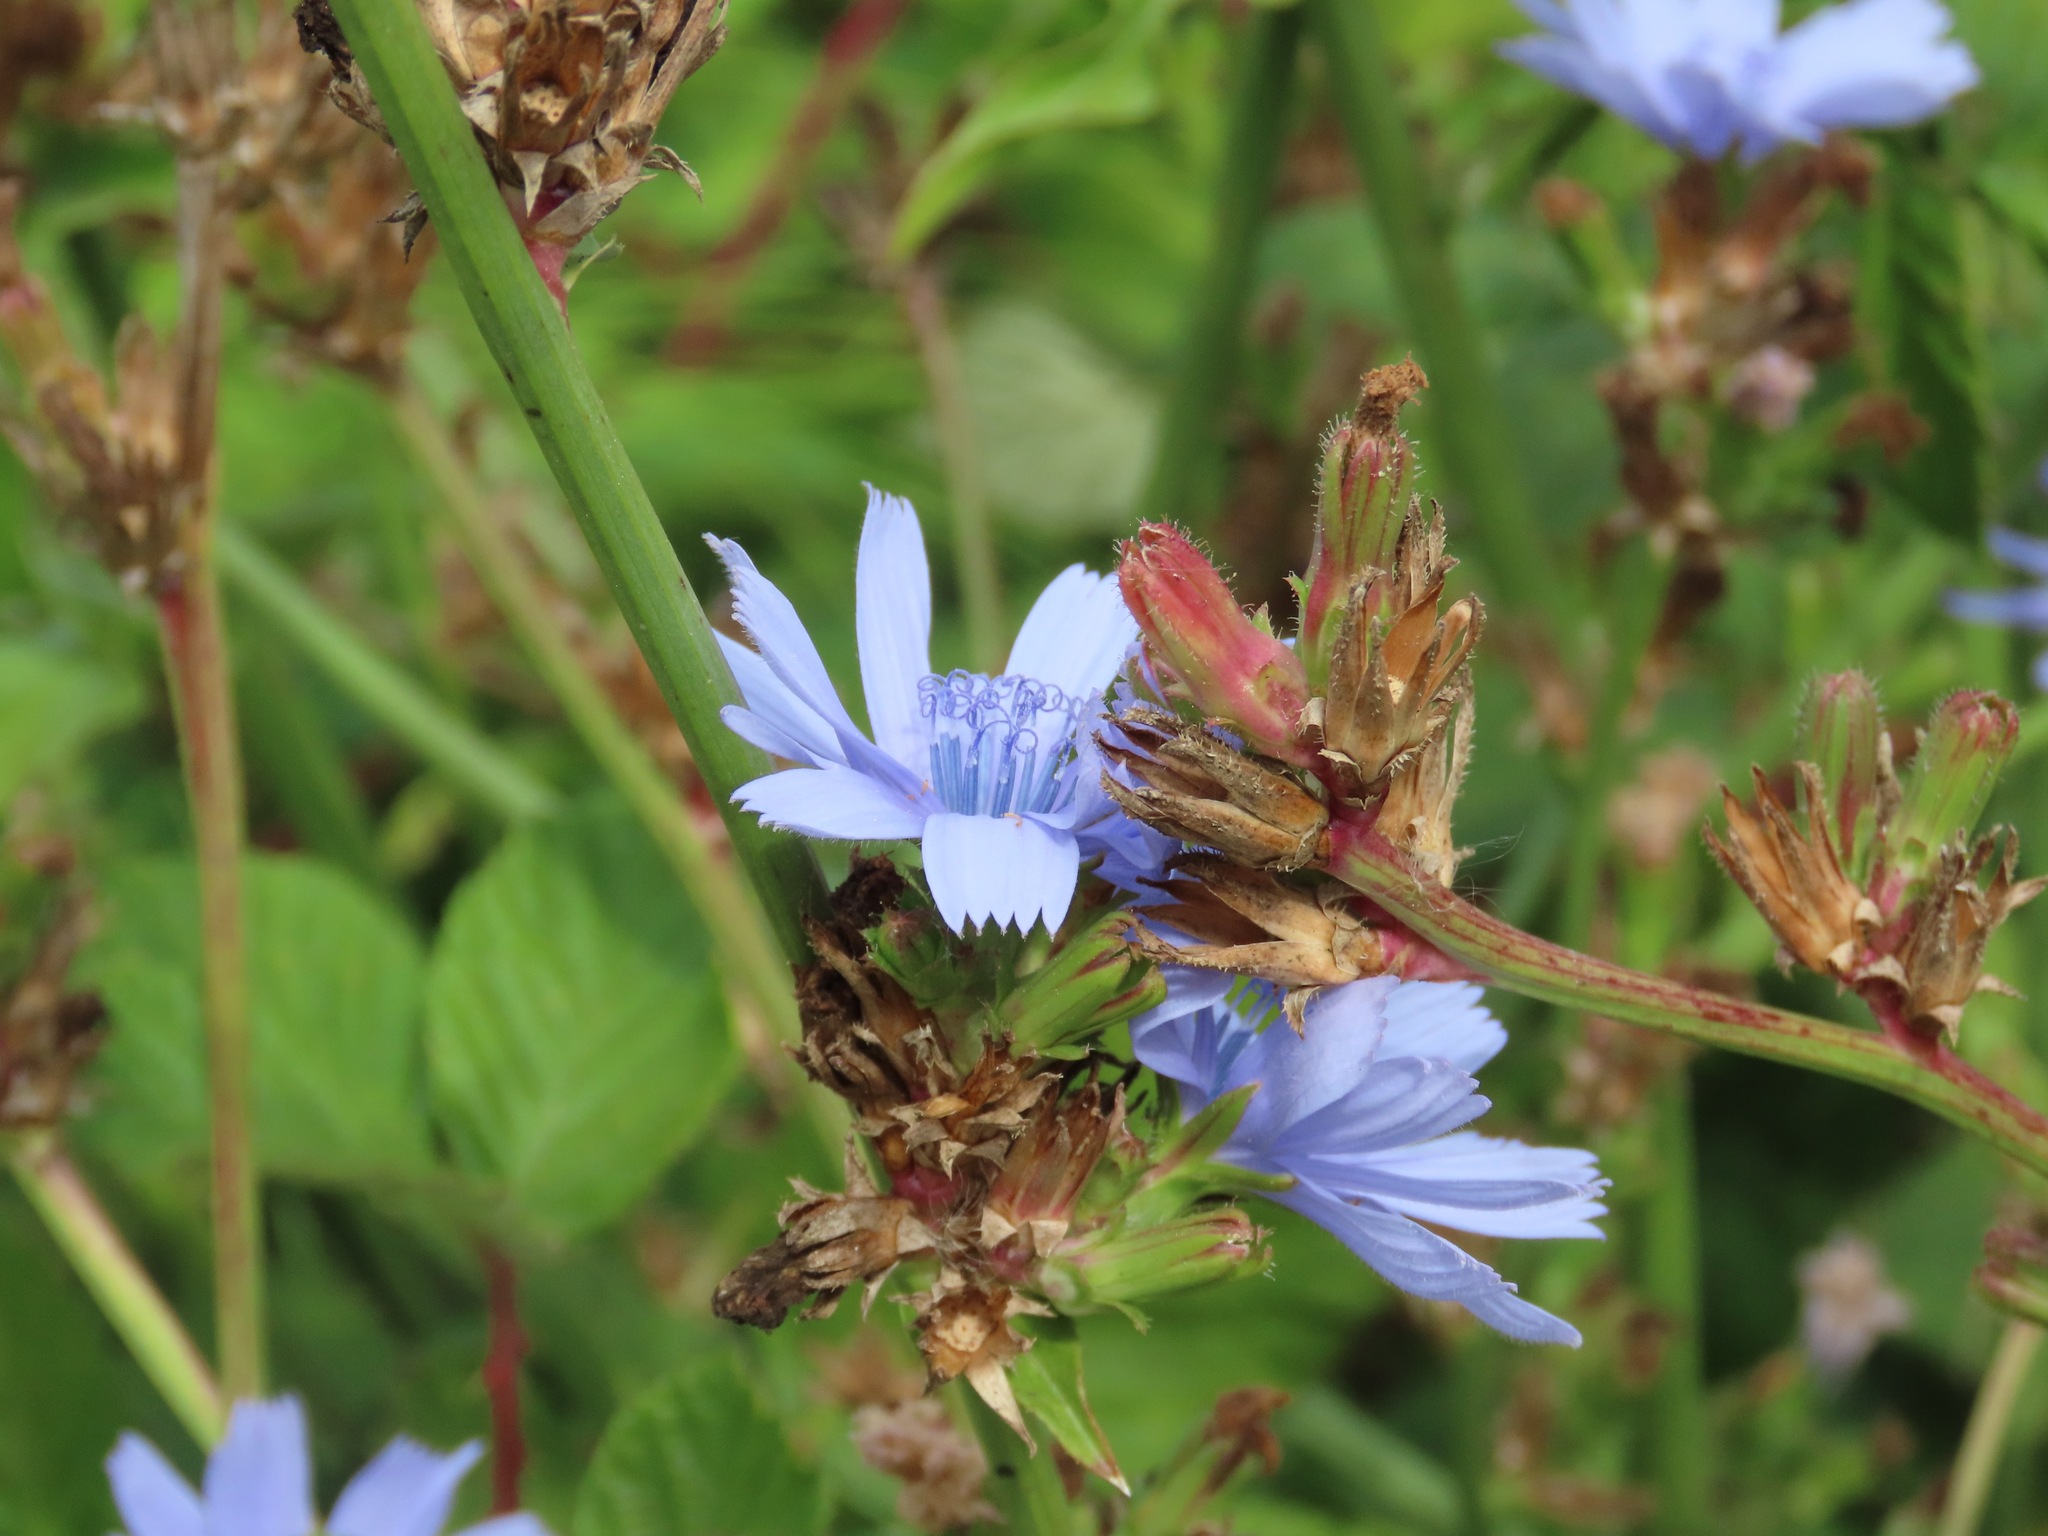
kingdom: Plantae
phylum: Tracheophyta
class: Magnoliopsida
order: Asterales
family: Asteraceae
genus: Cichorium
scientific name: Cichorium intybus
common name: Chicory
